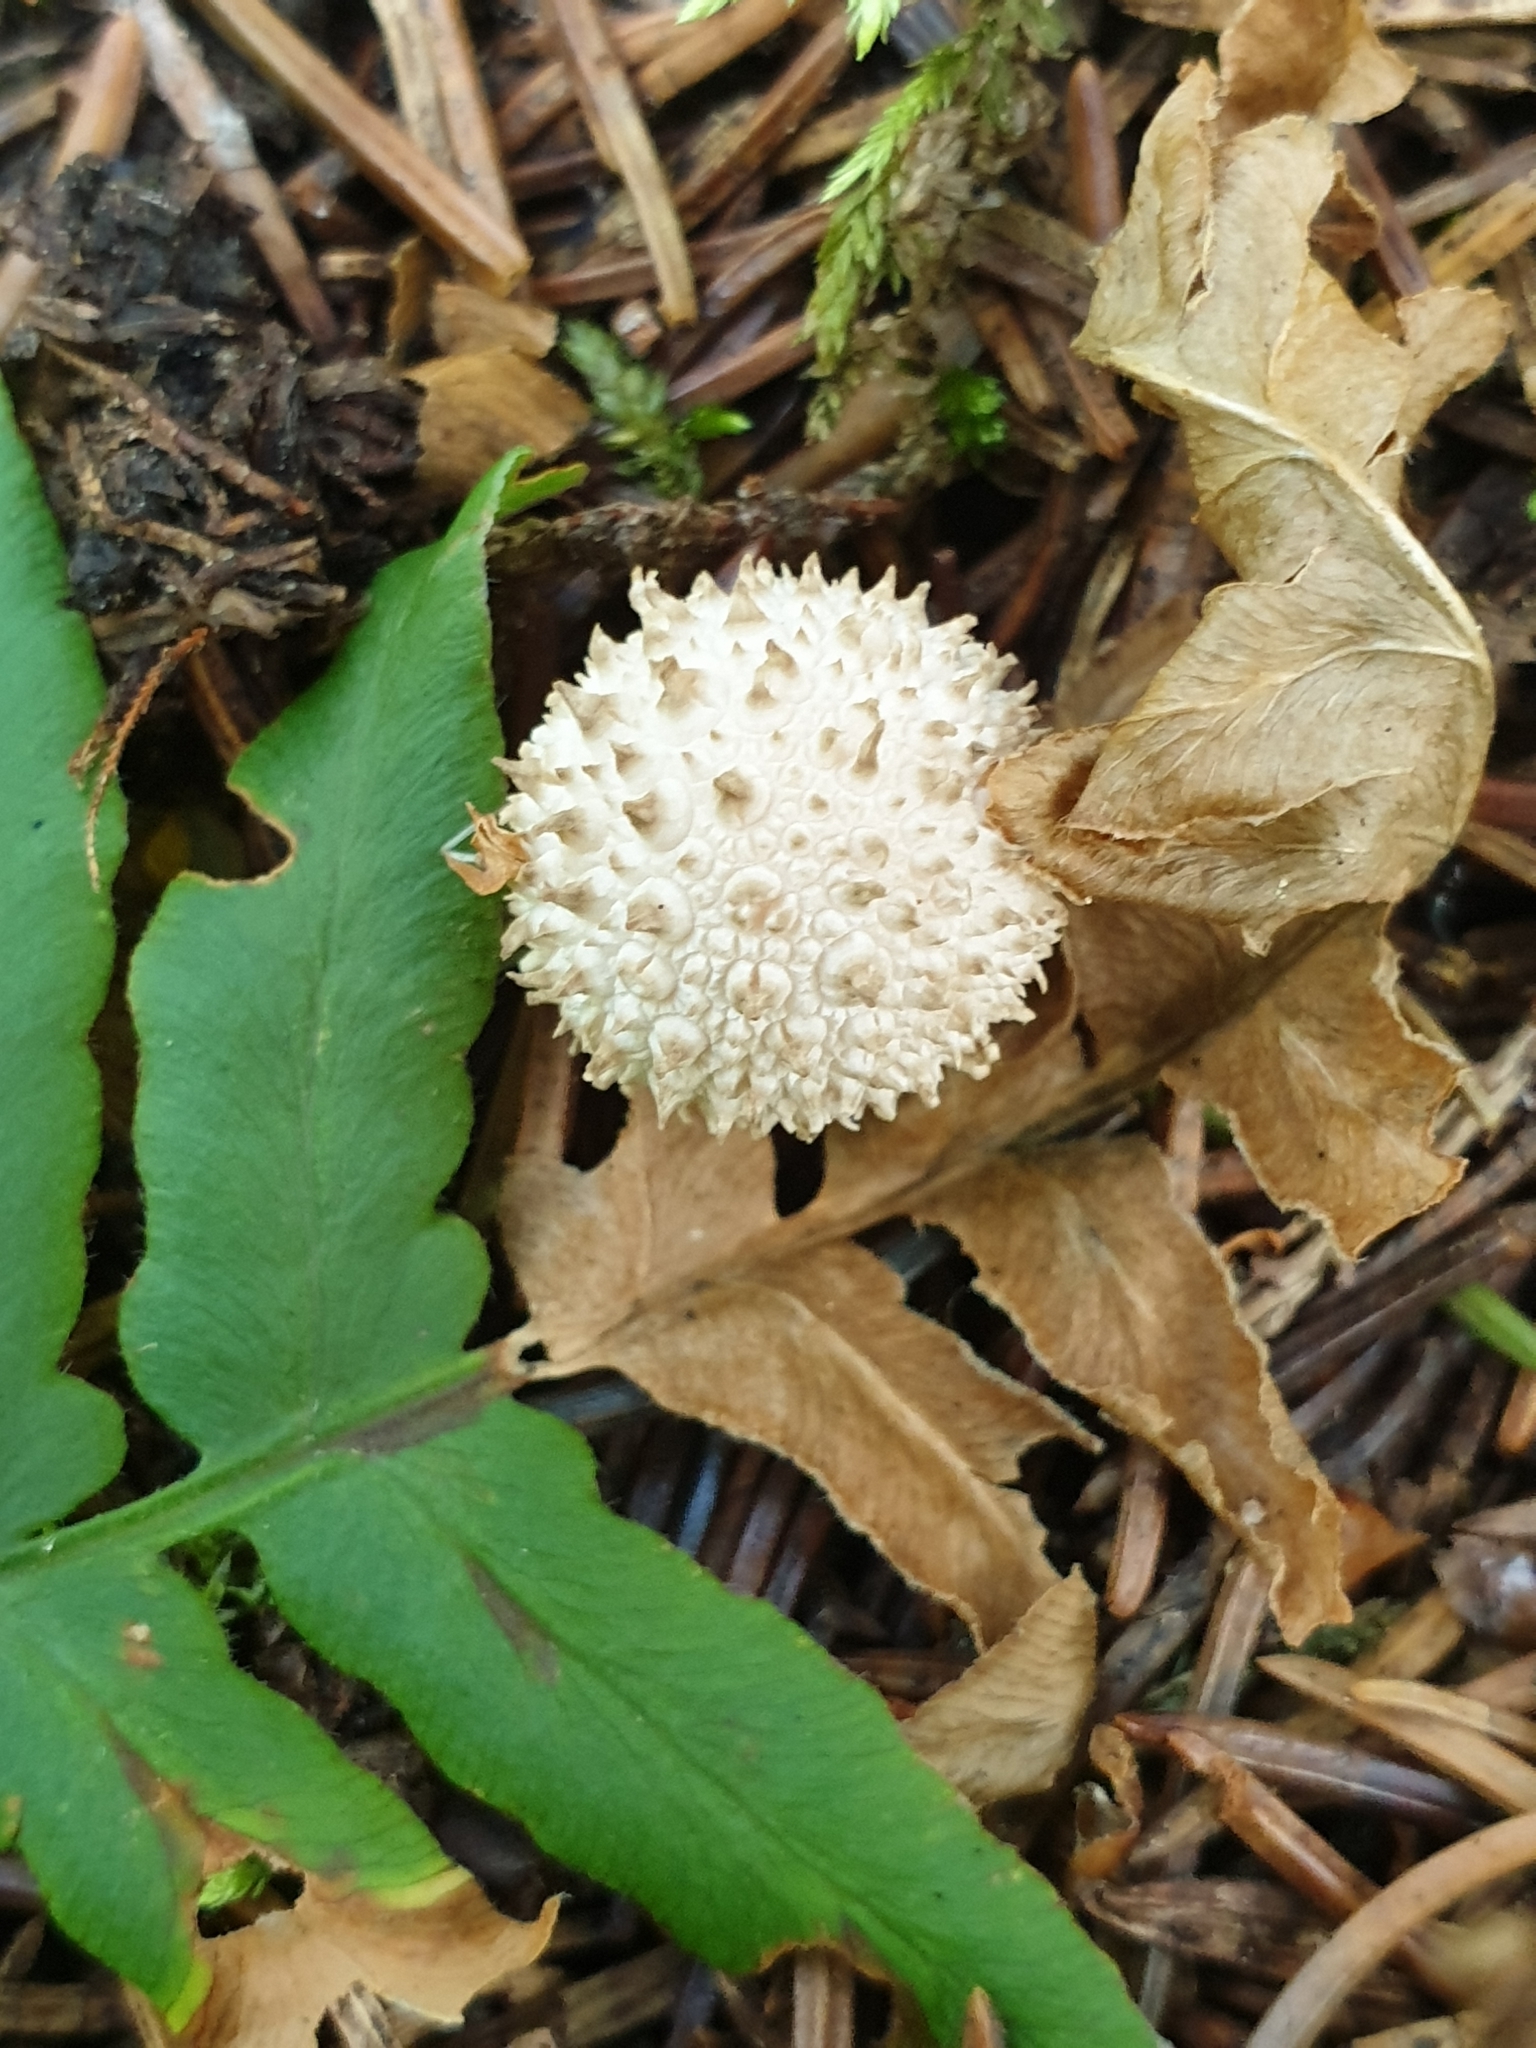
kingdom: Fungi
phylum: Basidiomycota
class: Agaricomycetes
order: Agaricales
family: Lycoperdaceae
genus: Lycoperdon
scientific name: Lycoperdon perlatum
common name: Common puffball
